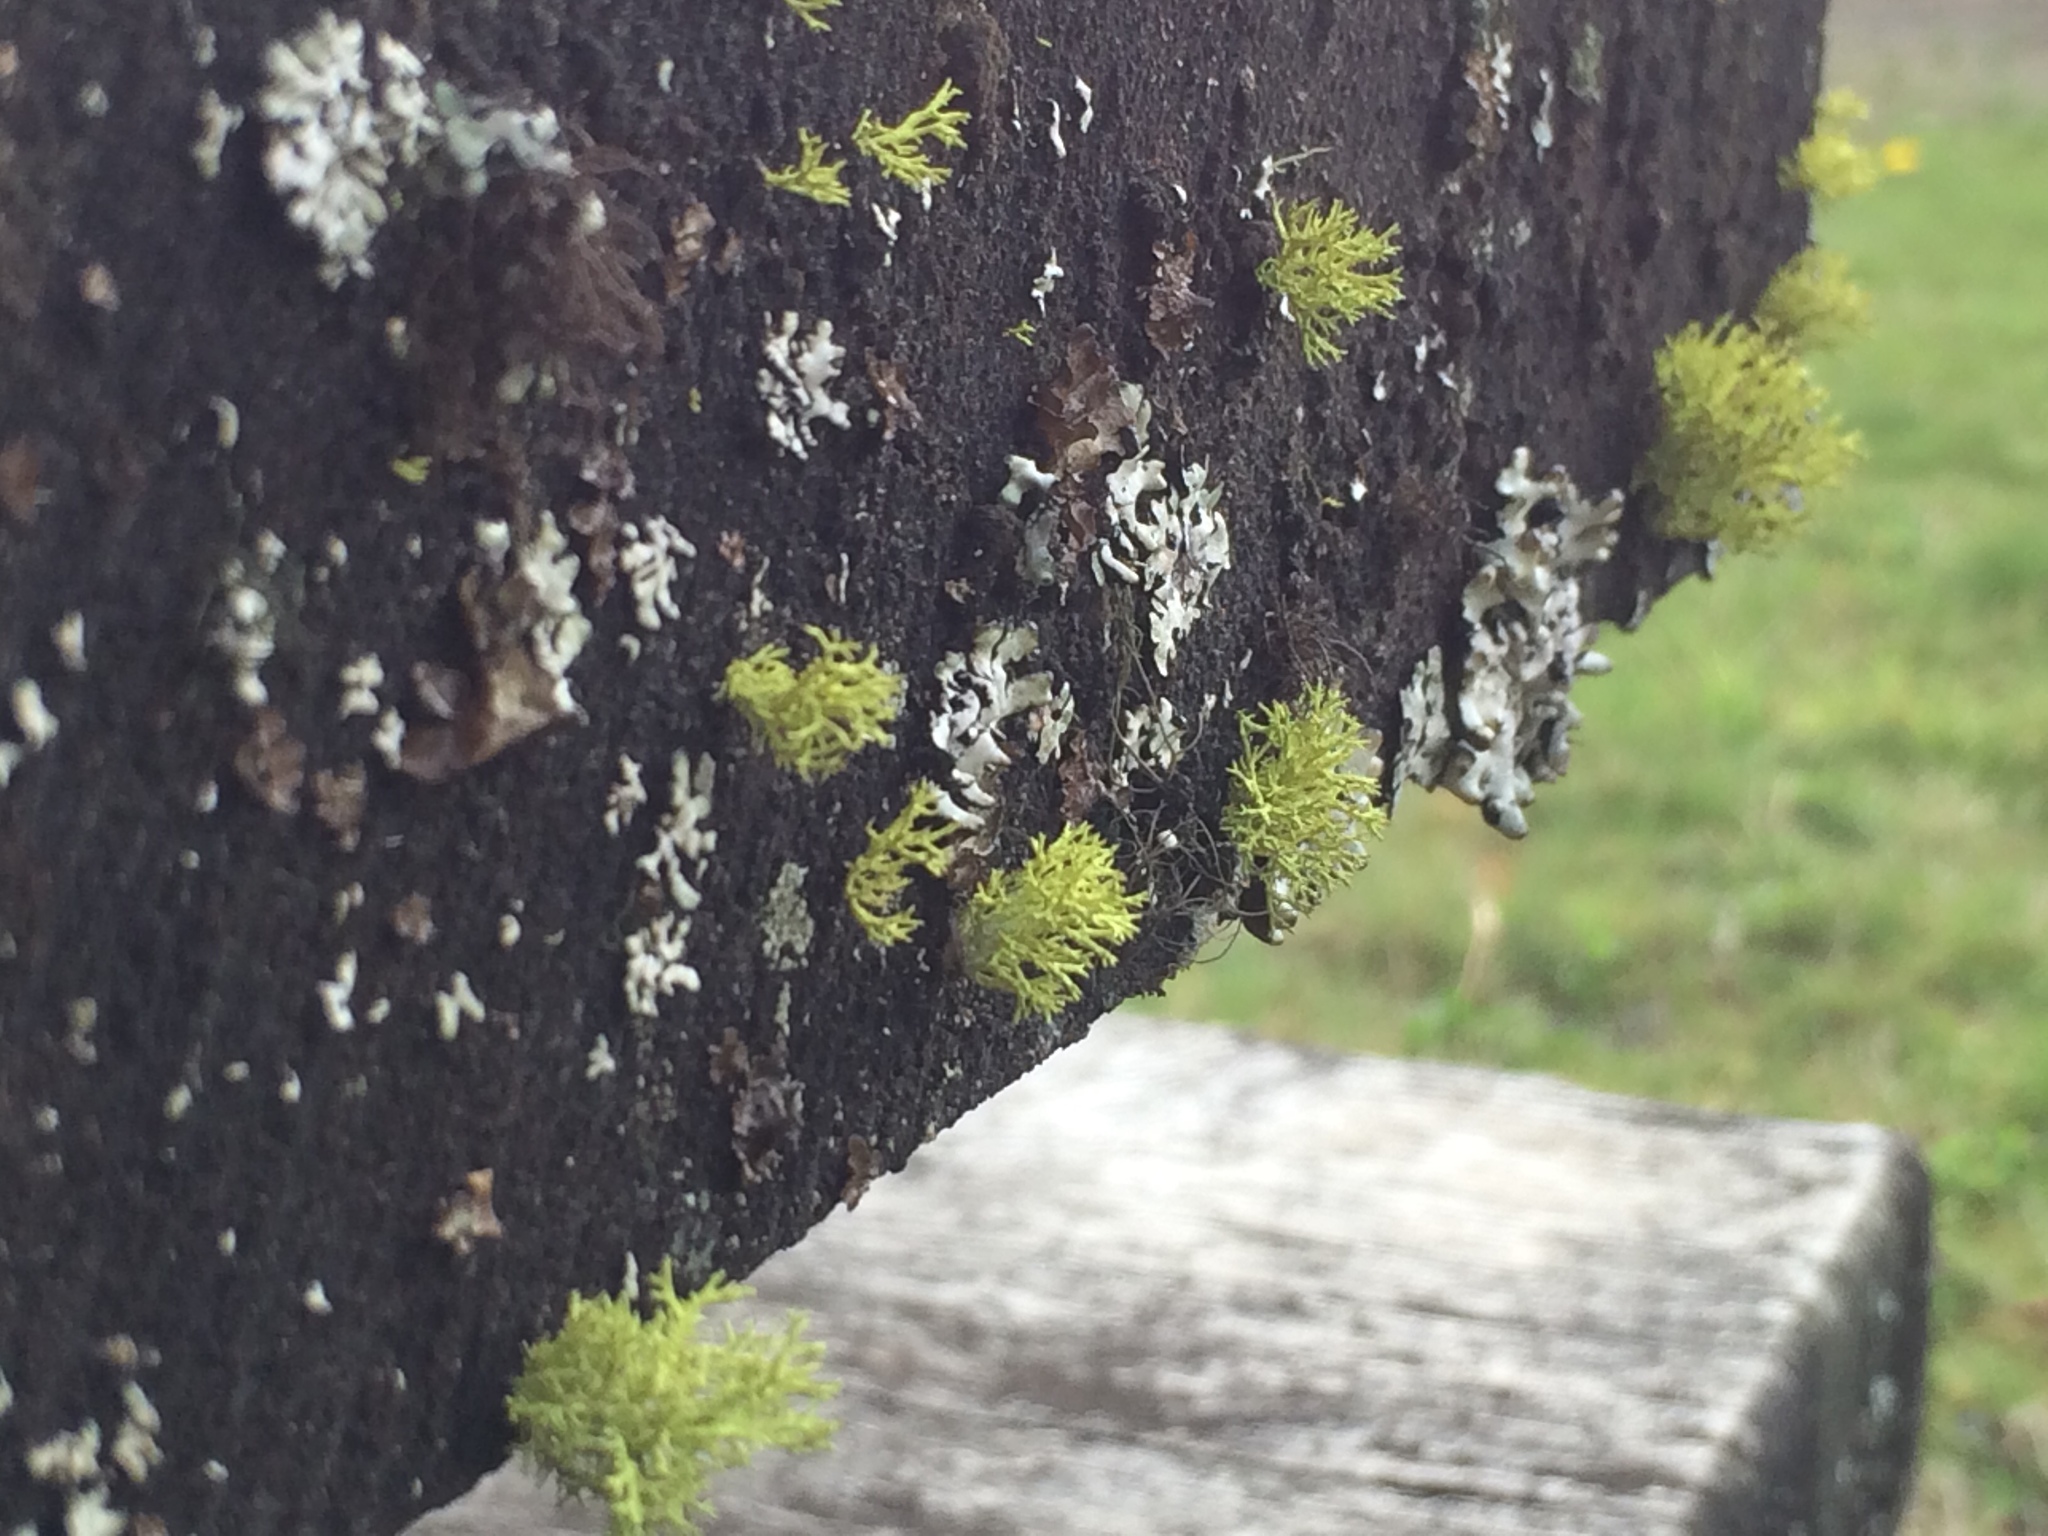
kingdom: Fungi
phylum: Ascomycota
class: Lecanoromycetes
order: Lecanorales
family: Parmeliaceae
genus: Letharia
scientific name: Letharia vulpina
